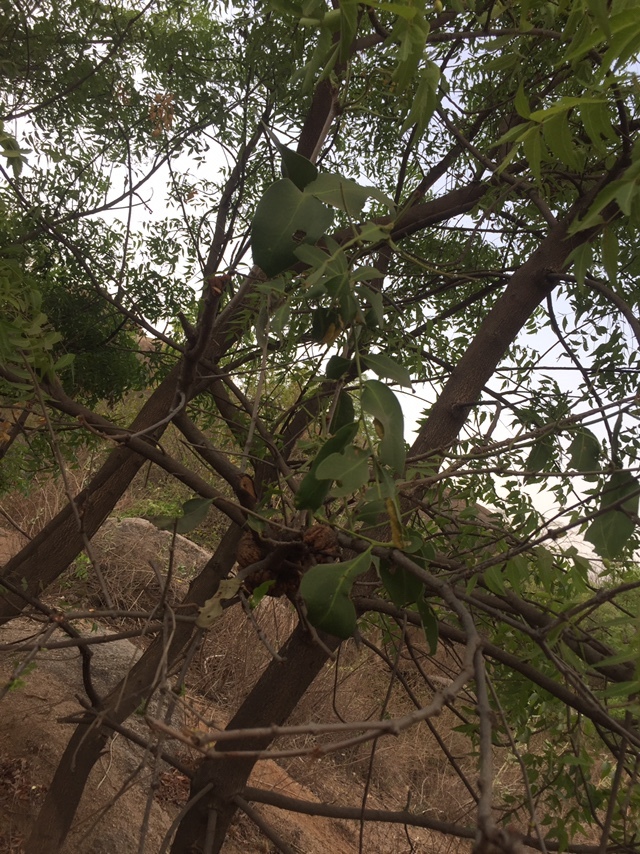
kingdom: Plantae
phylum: Tracheophyta
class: Magnoliopsida
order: Santalales
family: Loranthaceae
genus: Dendrophthoe
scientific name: Dendrophthoe falcata
